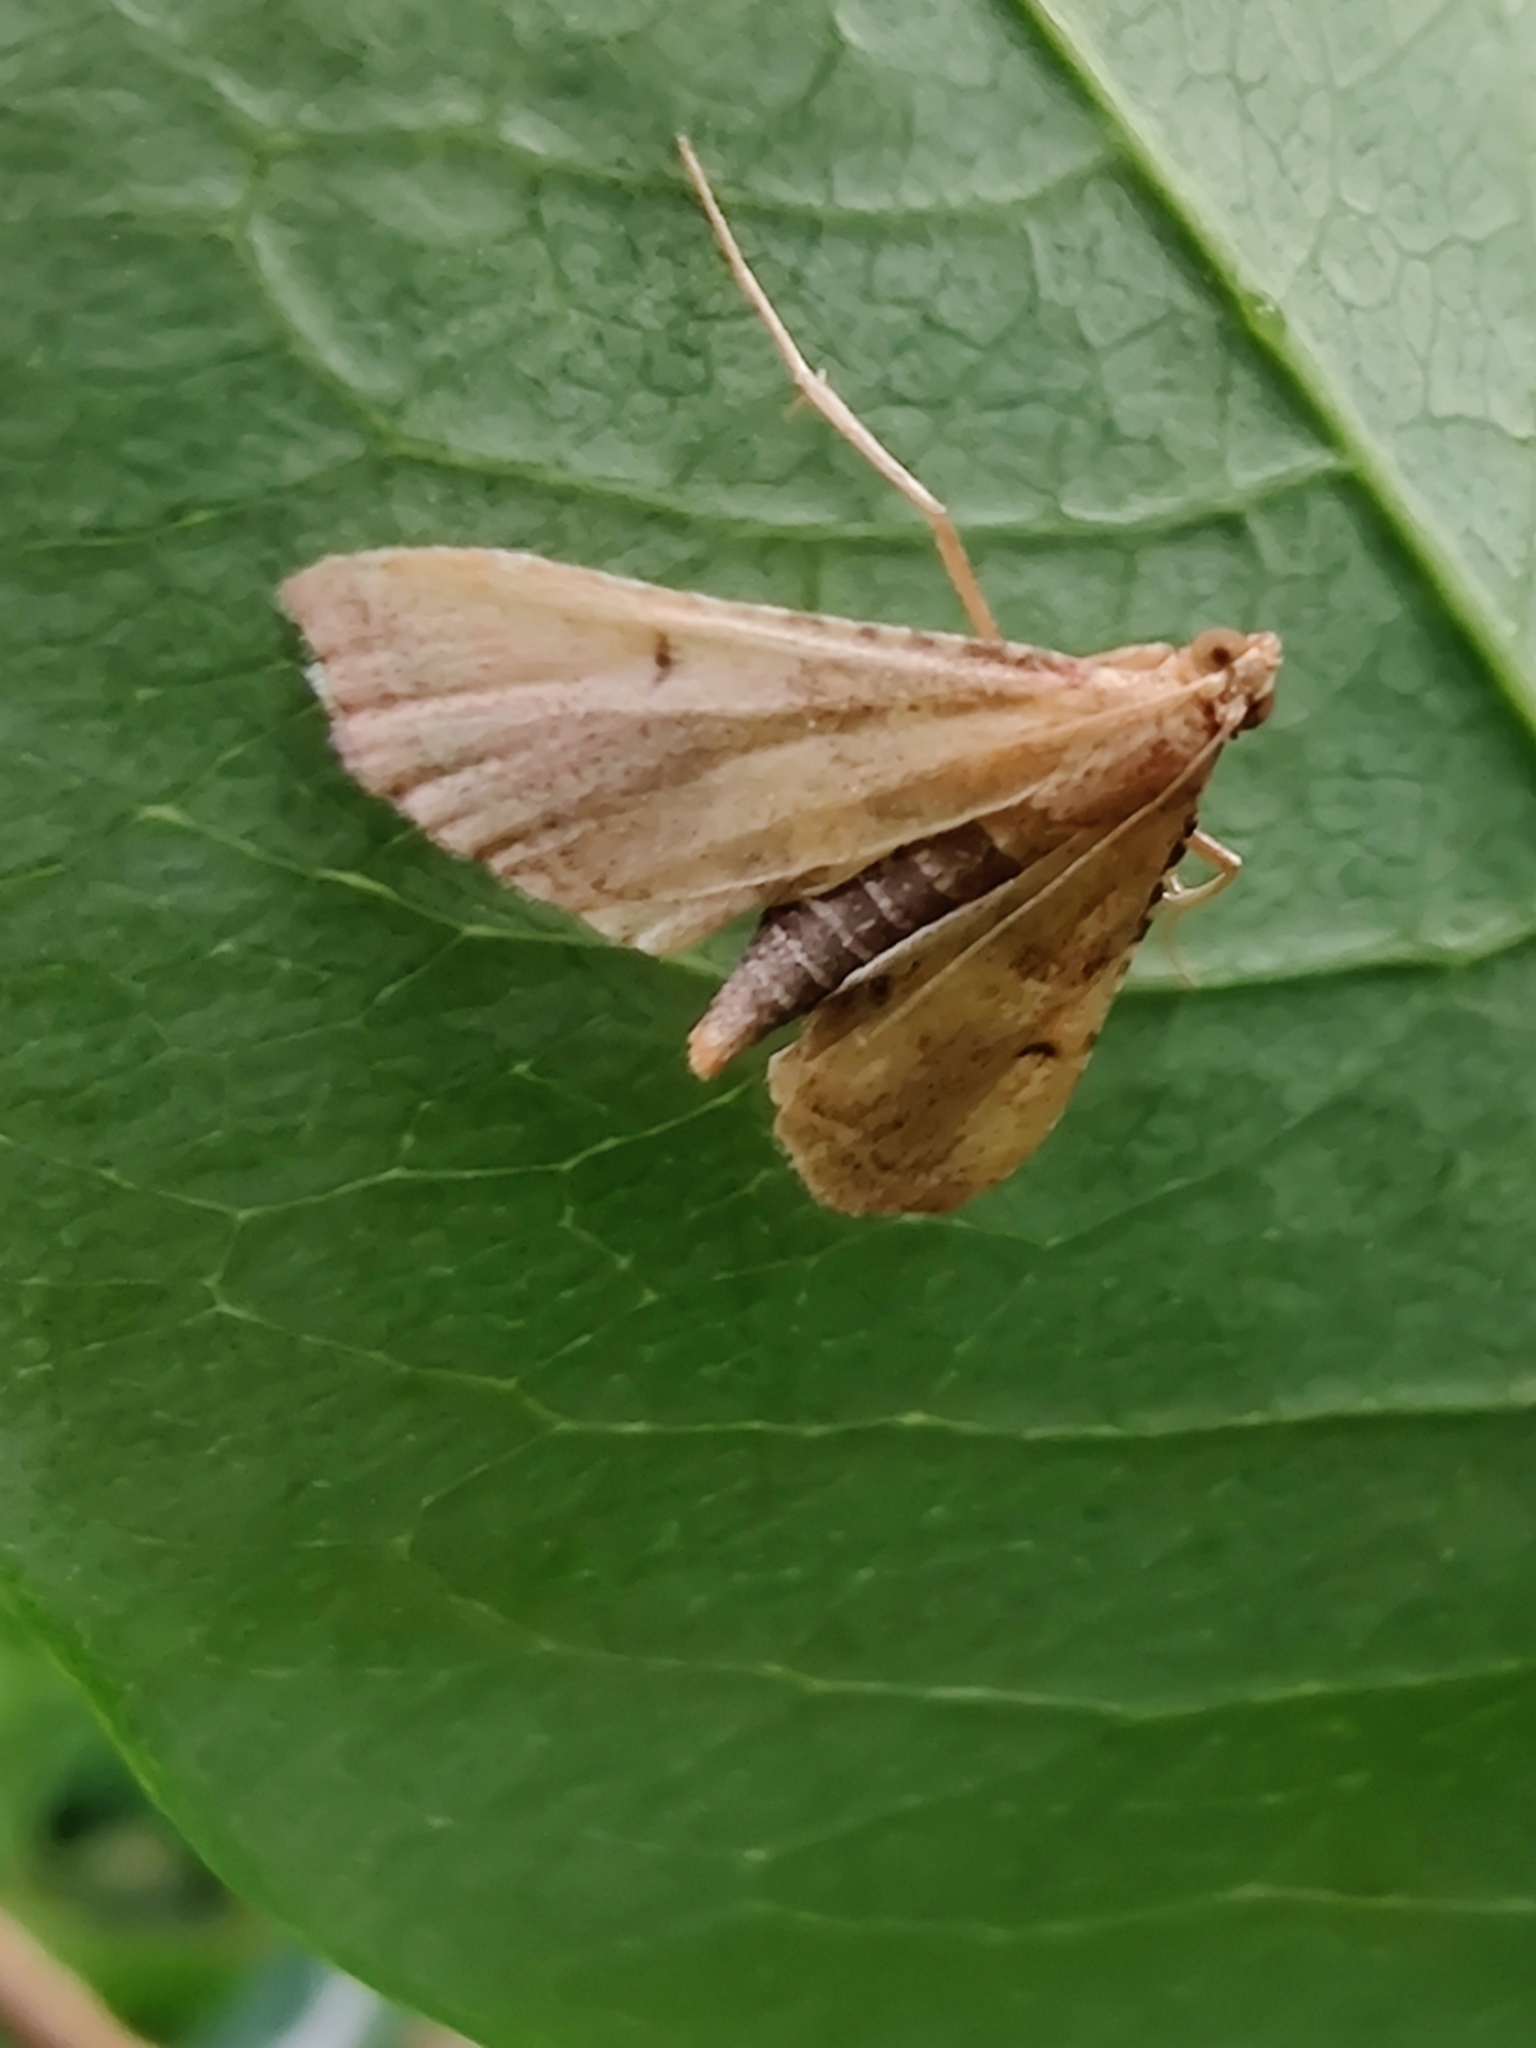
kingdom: Animalia
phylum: Arthropoda
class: Insecta
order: Lepidoptera
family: Pyralidae
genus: Endotricha
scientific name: Endotricha flammealis
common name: Rosy tabby
